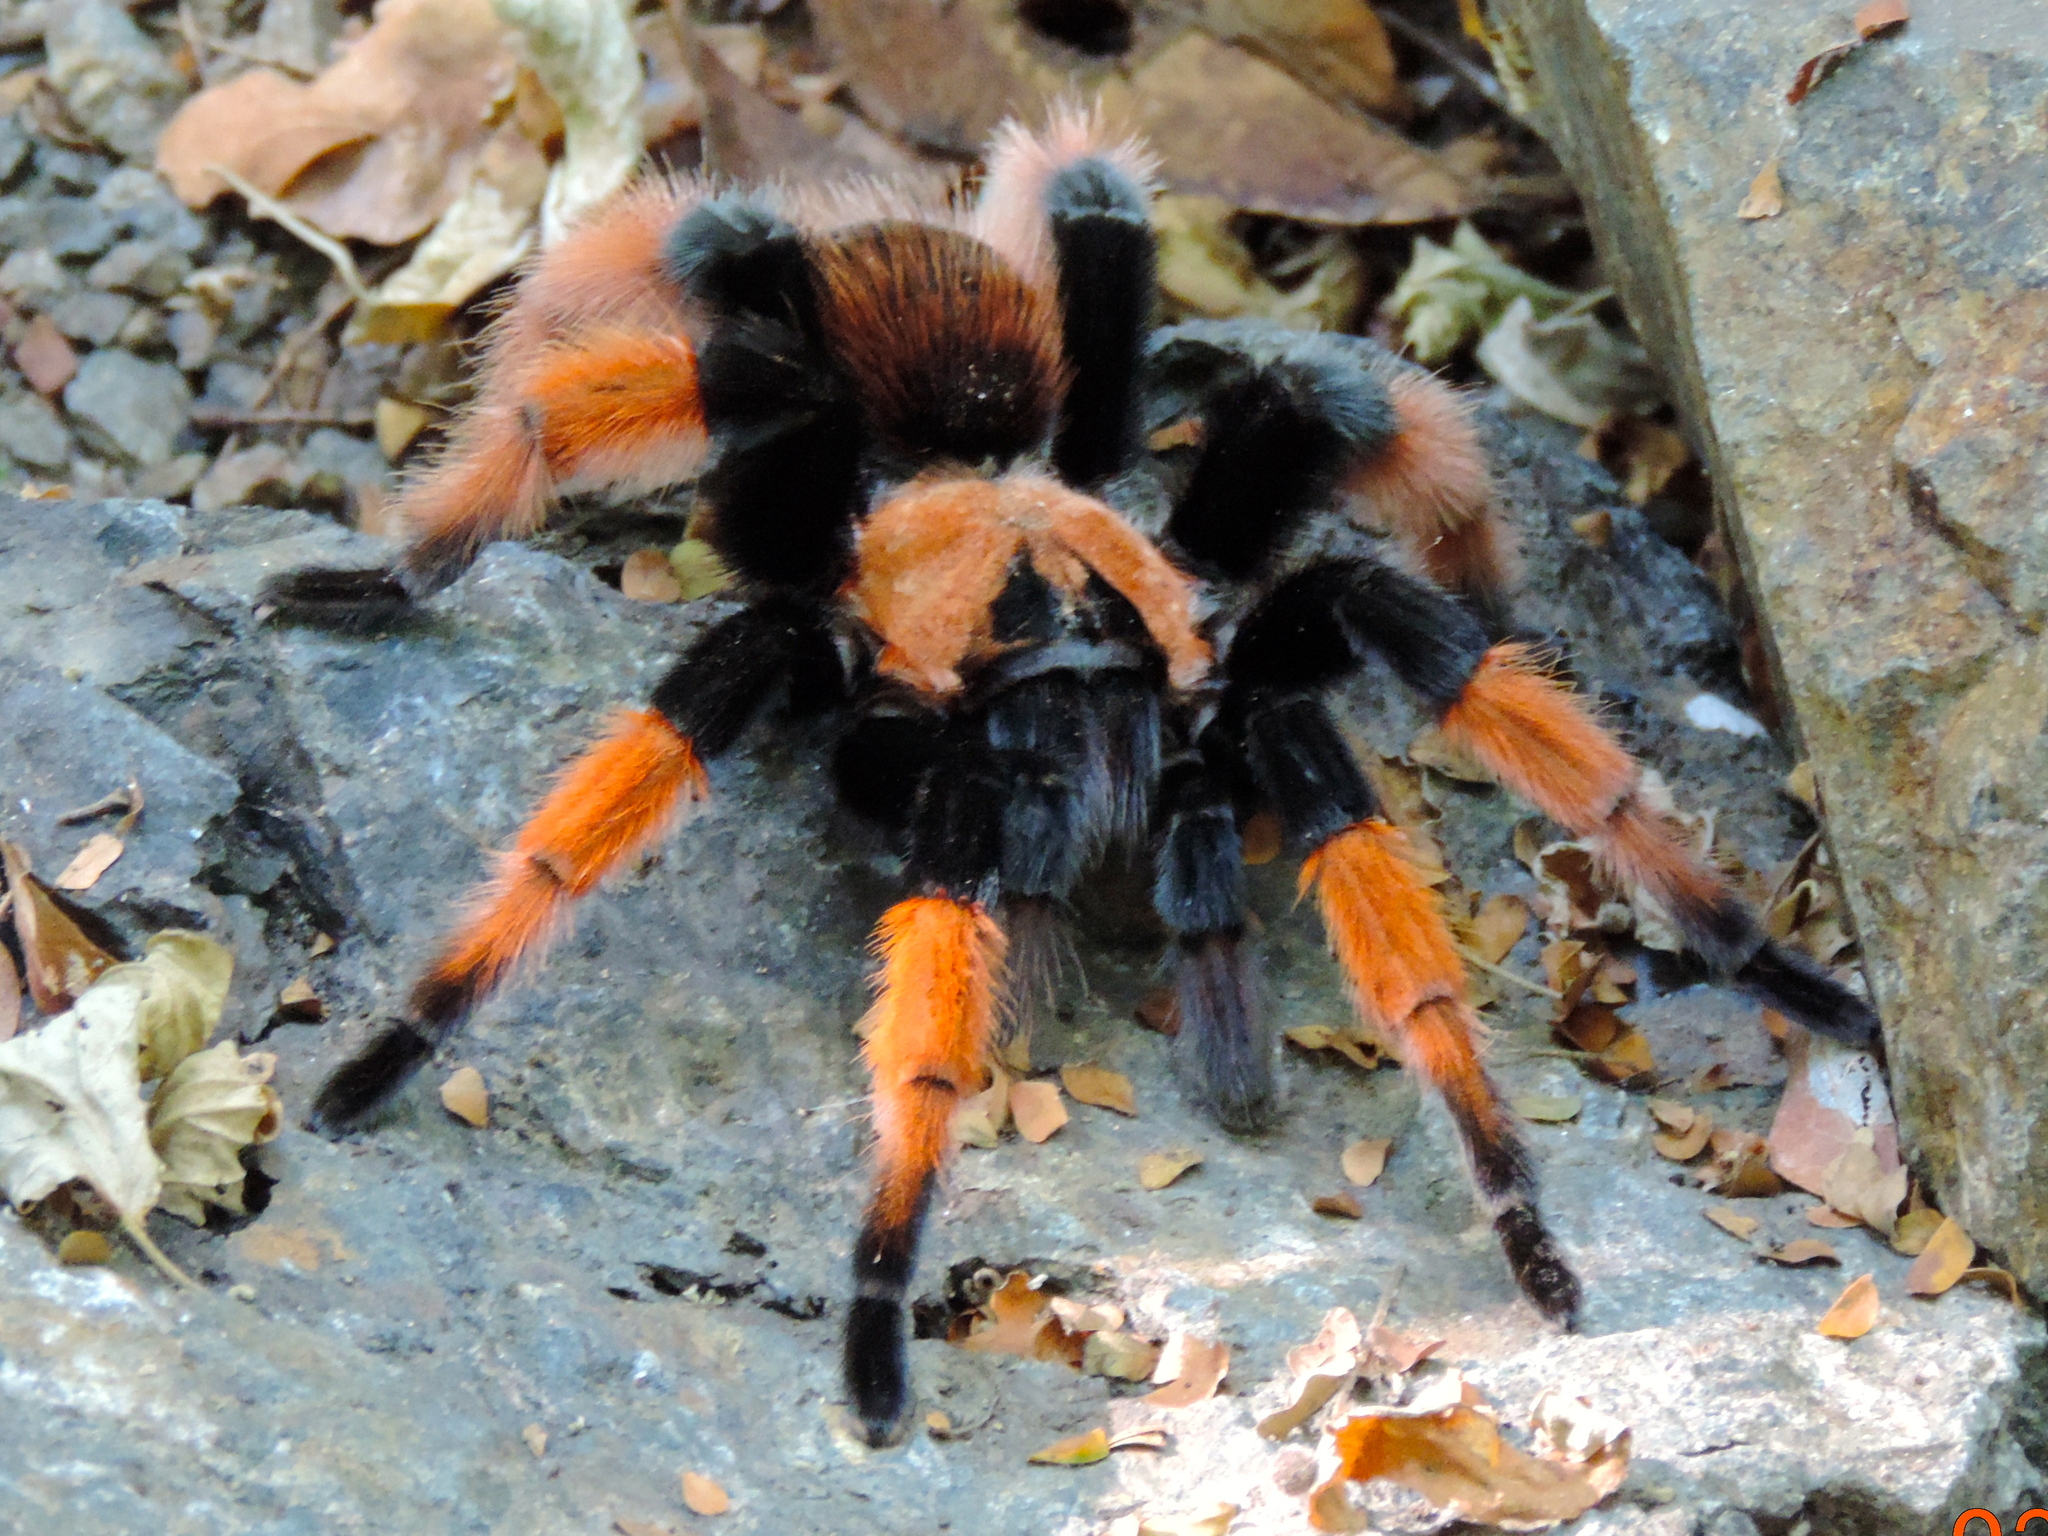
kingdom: Animalia
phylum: Arthropoda
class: Arachnida
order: Araneae
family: Theraphosidae
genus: Brachypelma
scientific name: Brachypelma emilia
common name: Mexican redleg
